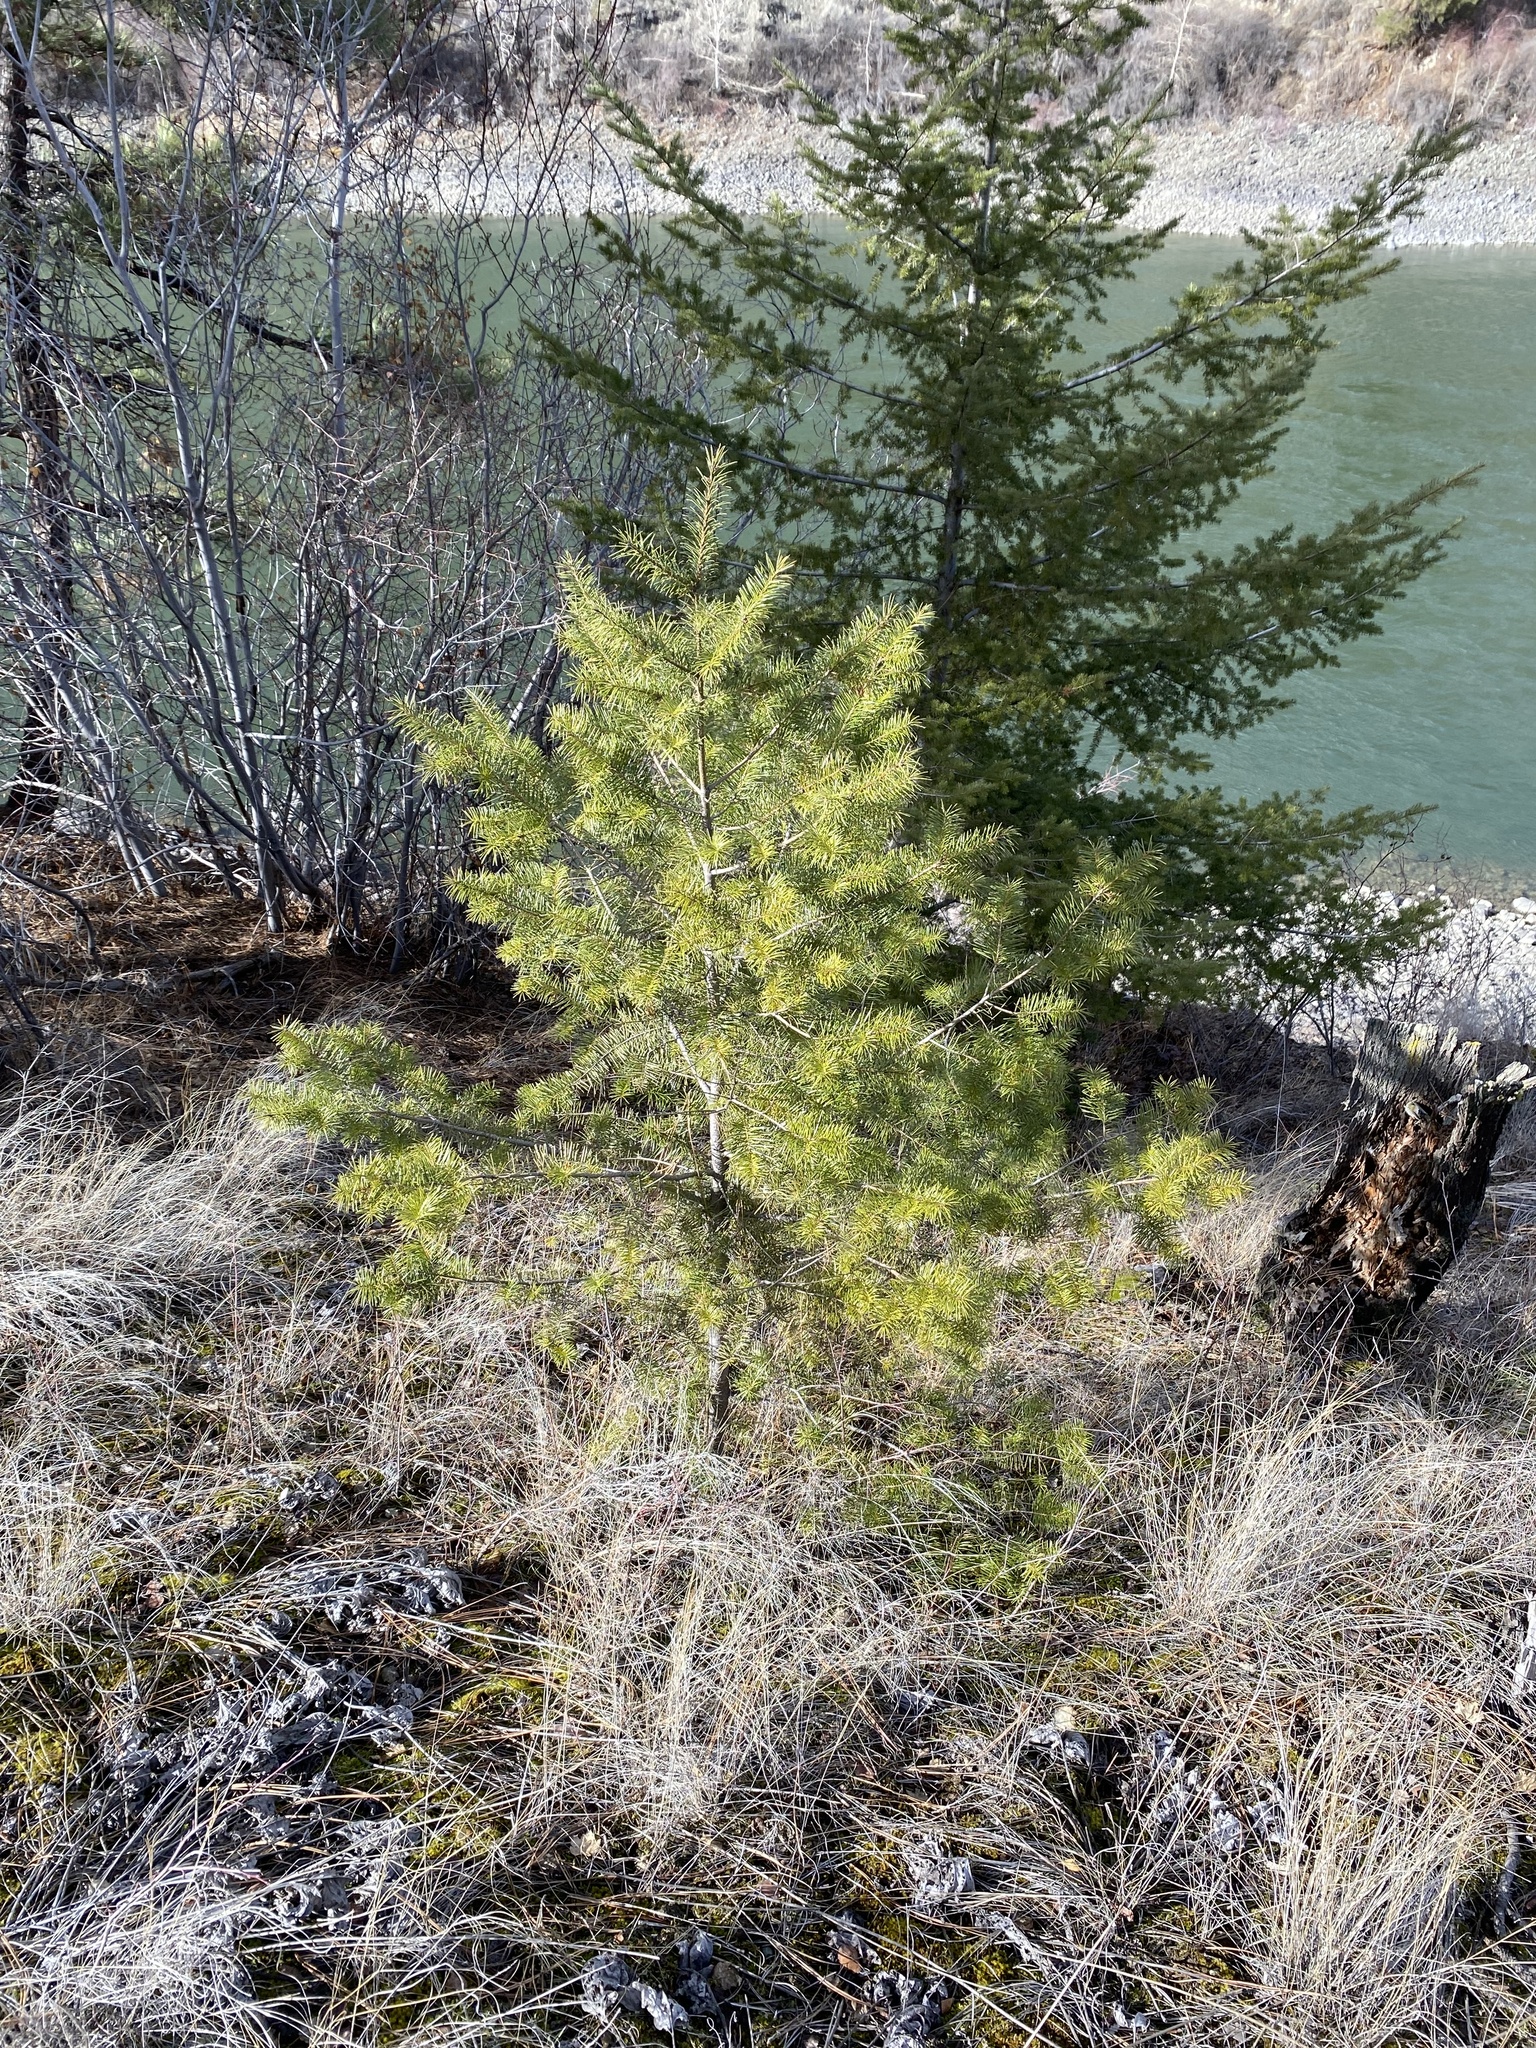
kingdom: Plantae
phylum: Tracheophyta
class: Pinopsida
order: Pinales
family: Pinaceae
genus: Pseudotsuga
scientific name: Pseudotsuga menziesii
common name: Douglas fir
